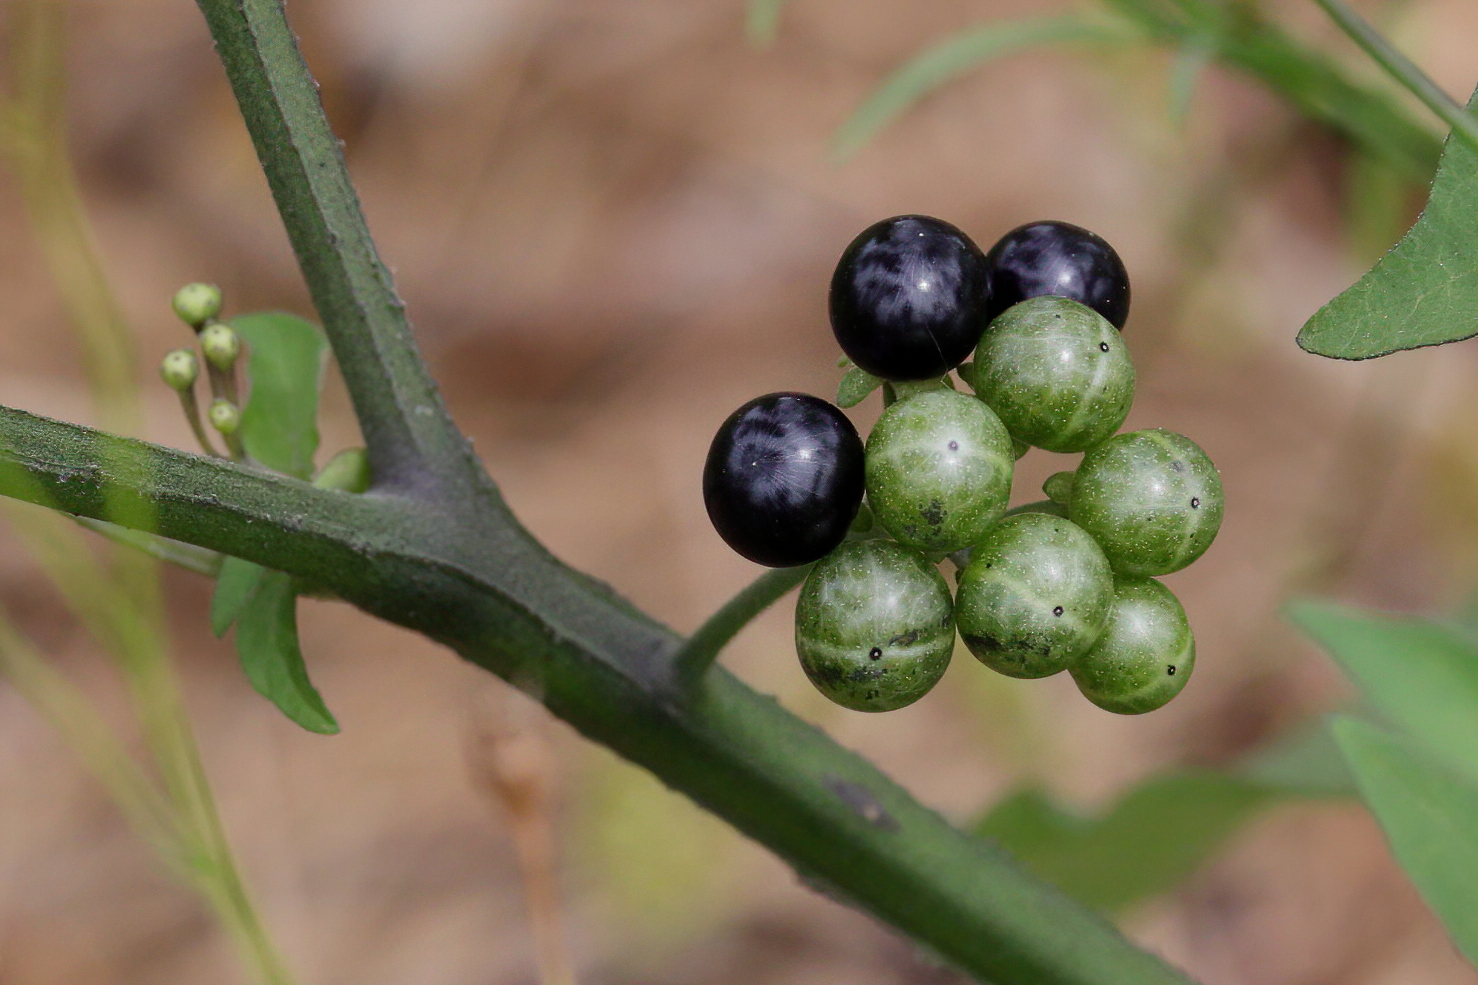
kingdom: Plantae
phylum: Tracheophyta
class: Magnoliopsida
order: Solanales
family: Solanaceae
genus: Solanum
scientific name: Solanum scabrum
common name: Garden-huckleberry
